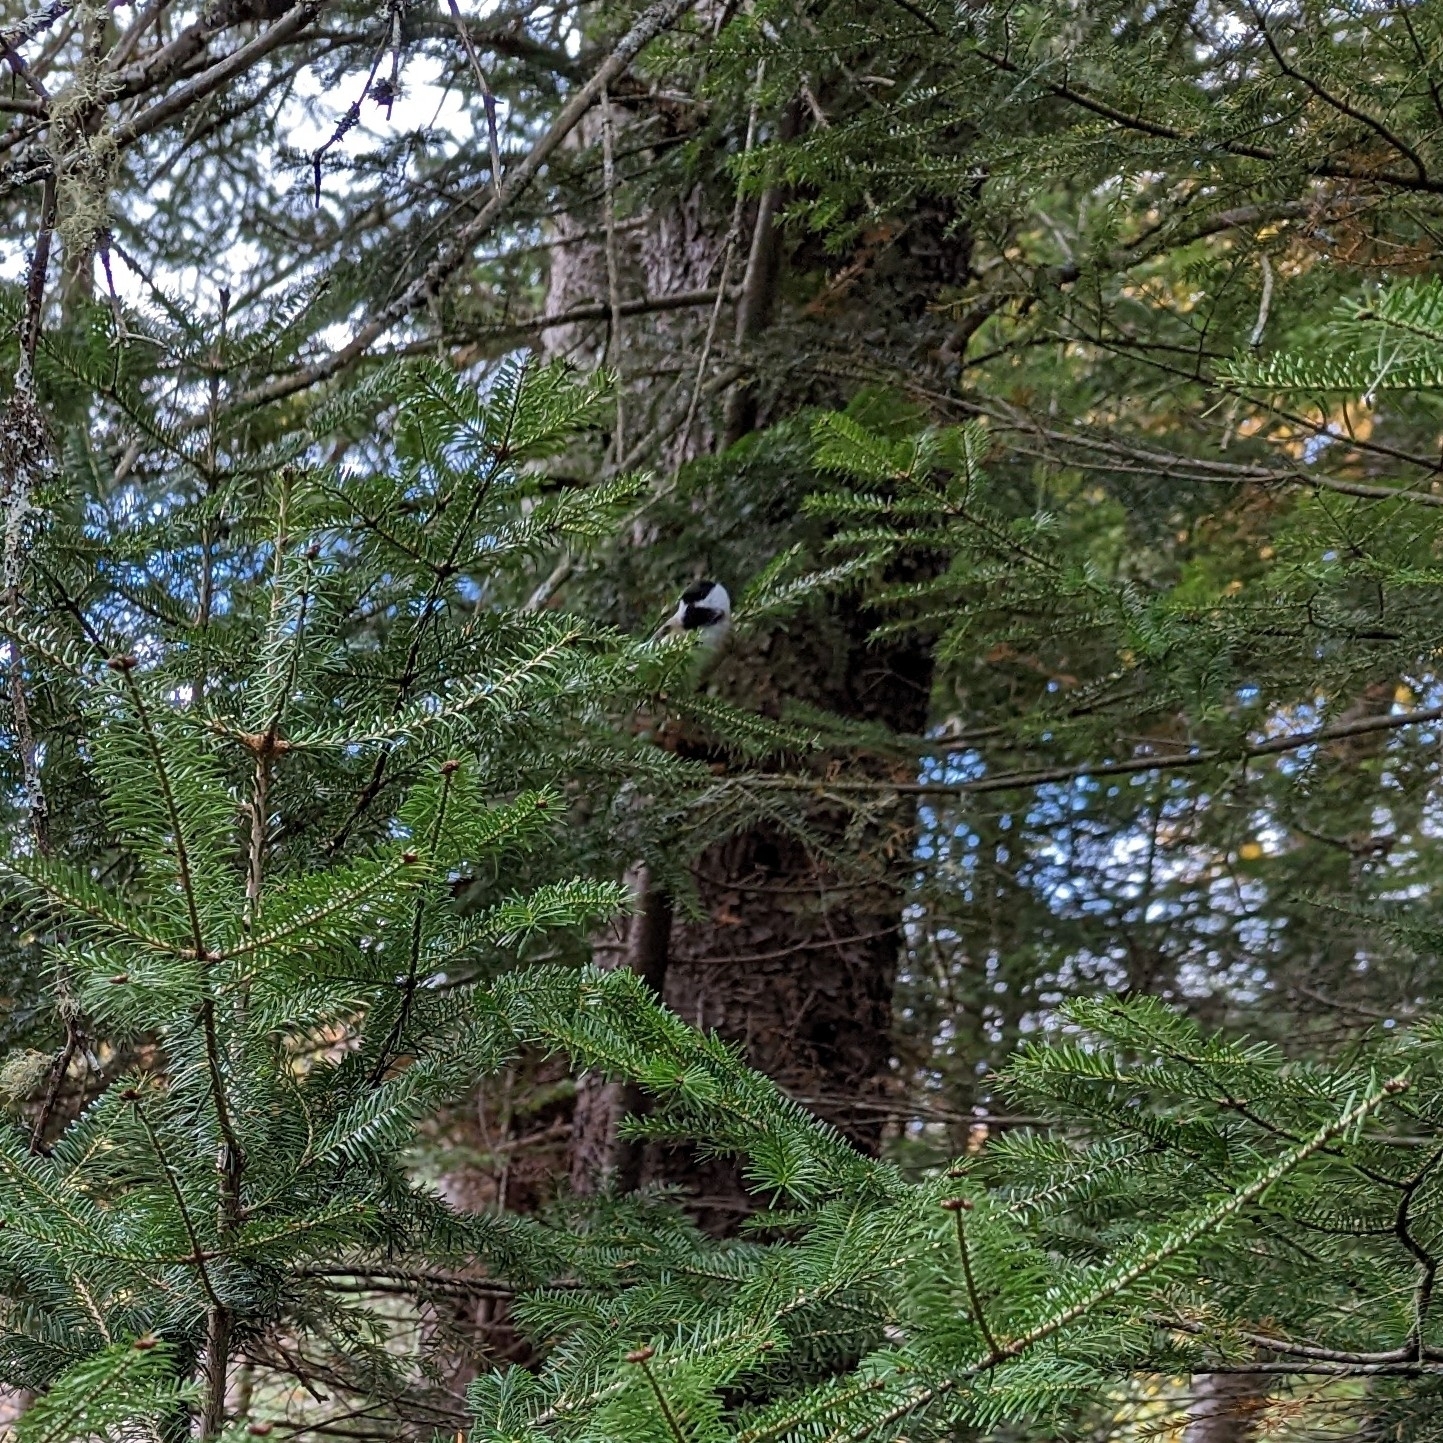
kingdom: Animalia
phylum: Chordata
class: Aves
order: Passeriformes
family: Paridae
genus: Poecile
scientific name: Poecile atricapillus
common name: Black-capped chickadee
